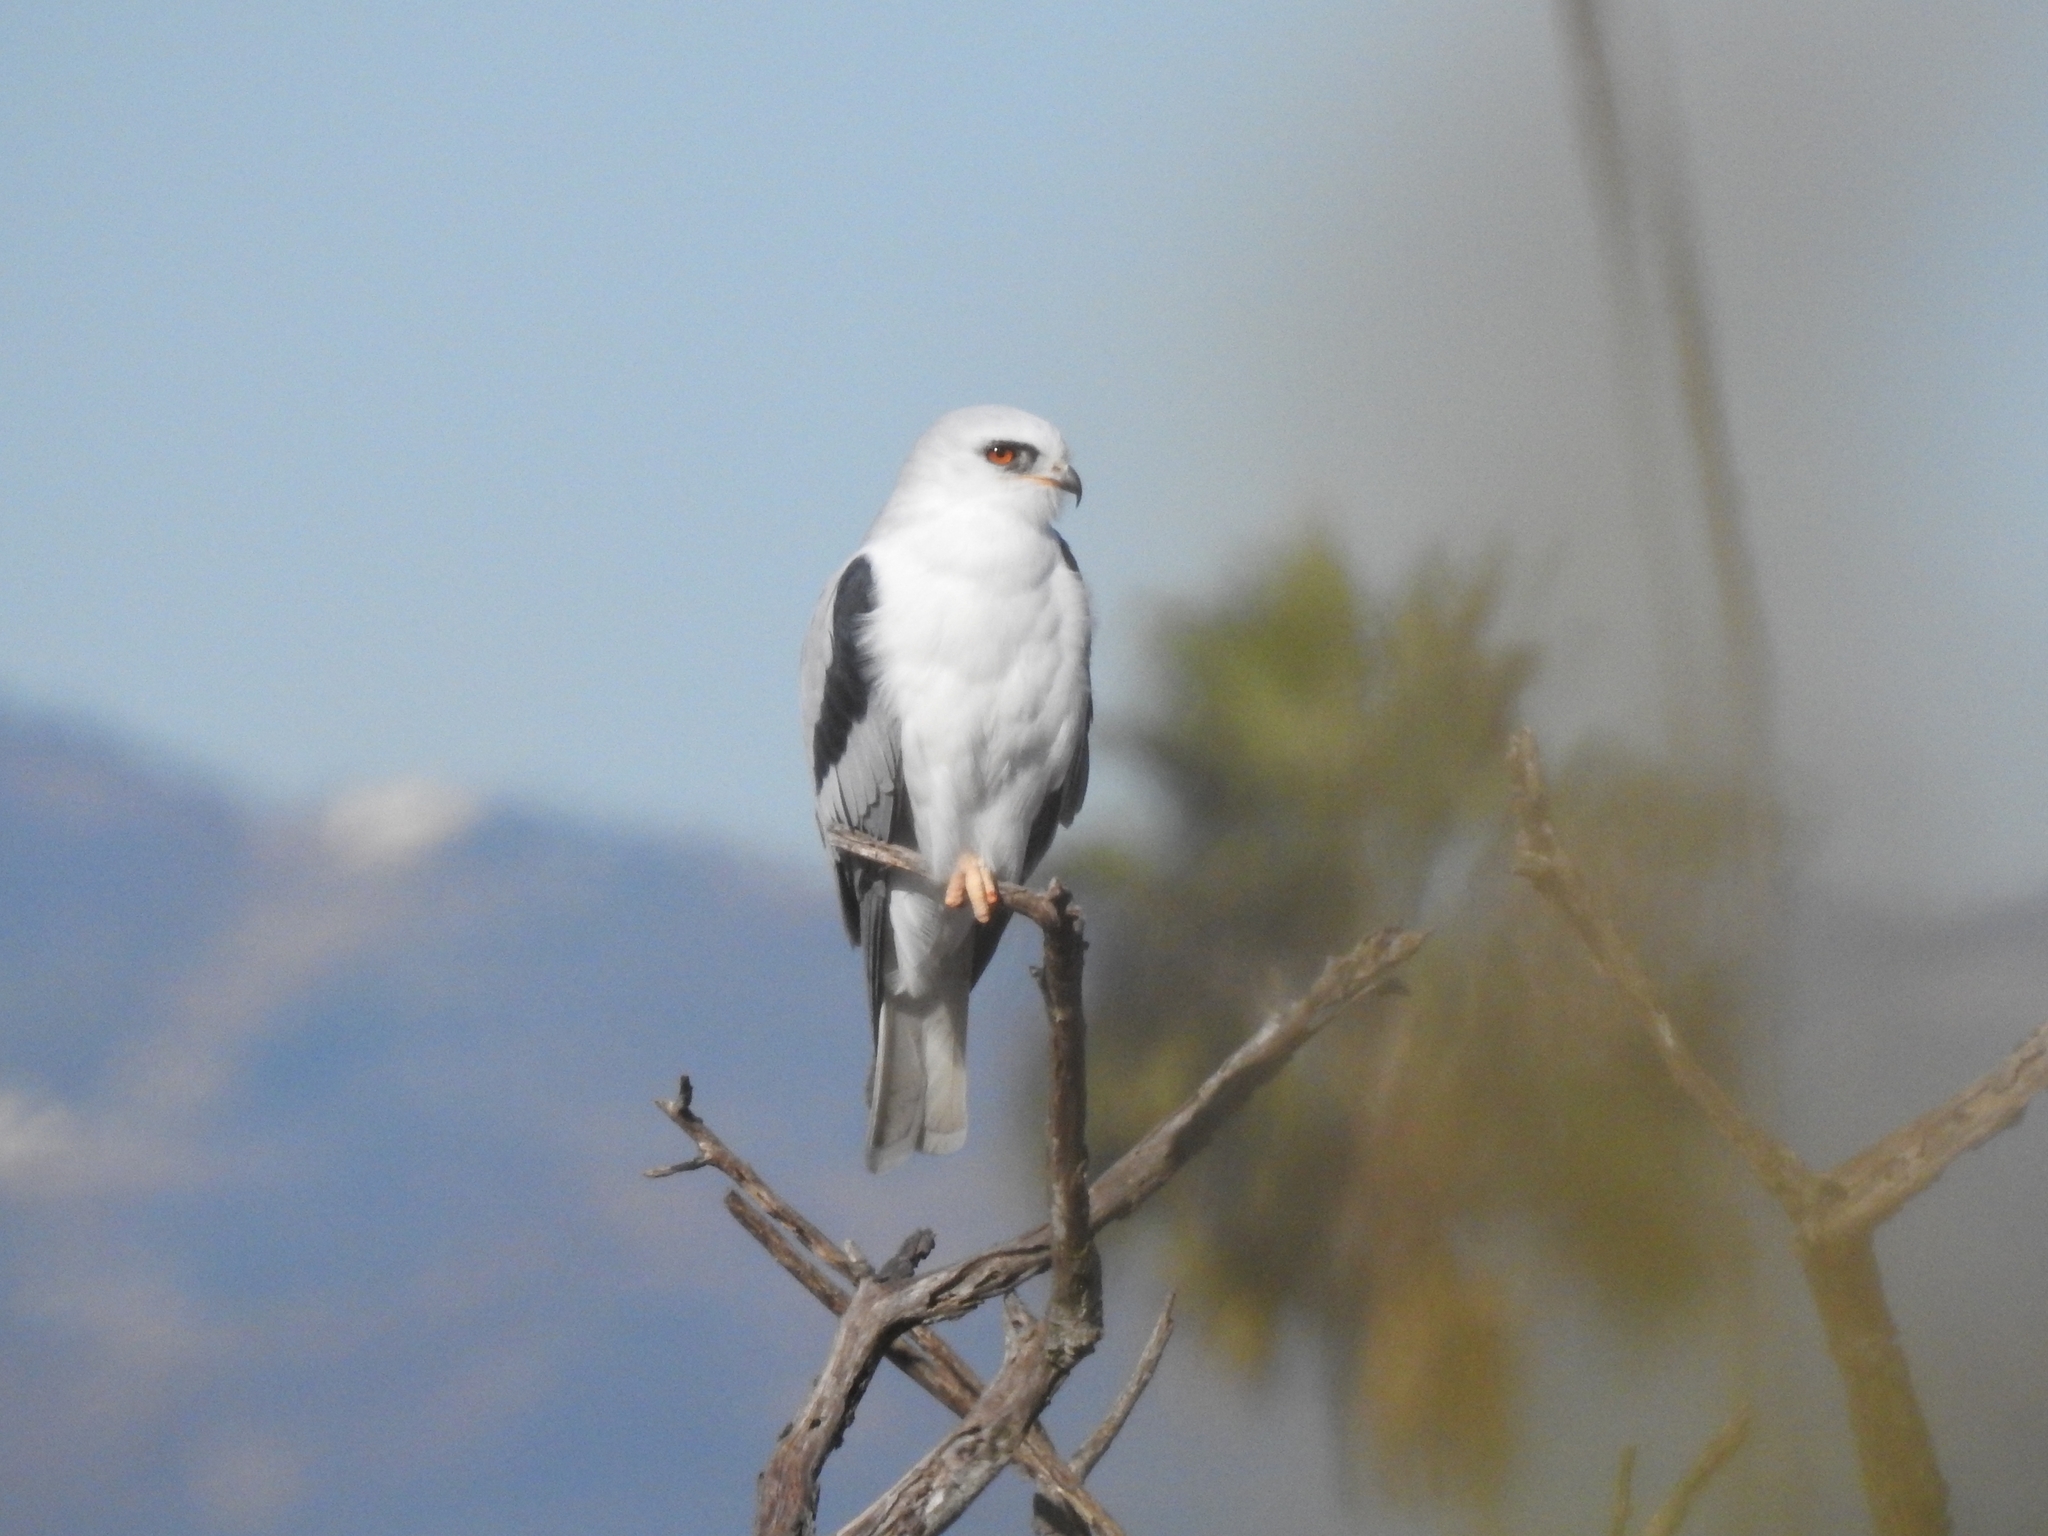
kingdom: Animalia
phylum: Chordata
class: Aves
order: Accipitriformes
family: Accipitridae
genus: Elanus
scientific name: Elanus leucurus
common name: White-tailed kite
